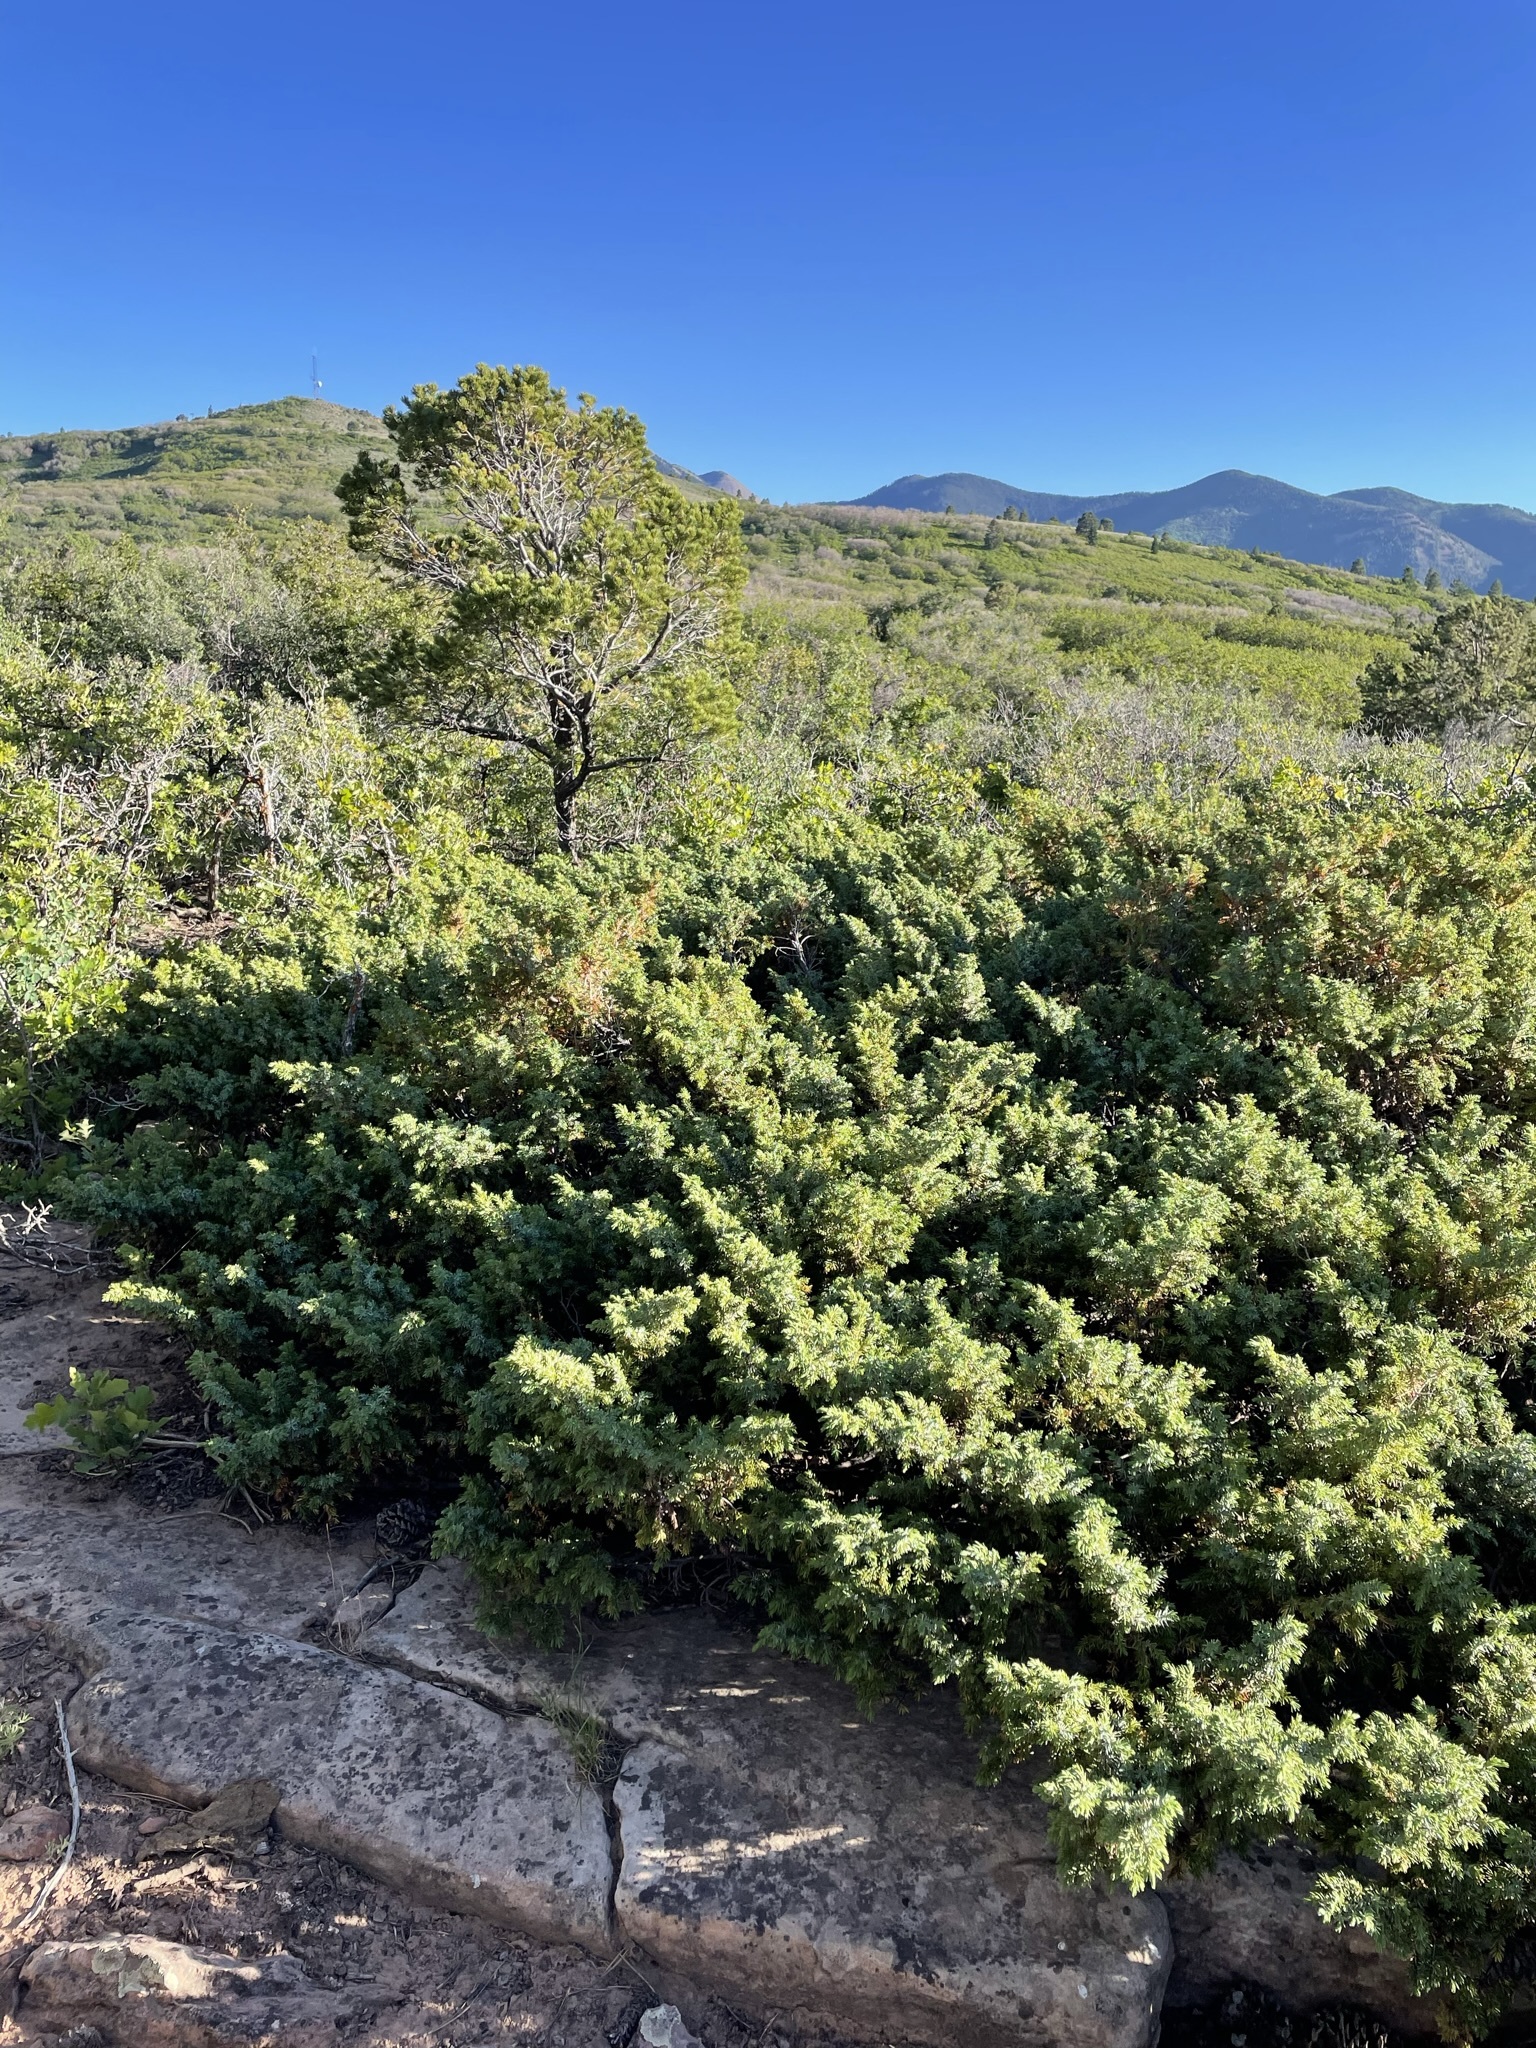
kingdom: Plantae
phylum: Tracheophyta
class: Pinopsida
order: Pinales
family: Cupressaceae
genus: Juniperus
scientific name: Juniperus communis
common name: Common juniper
